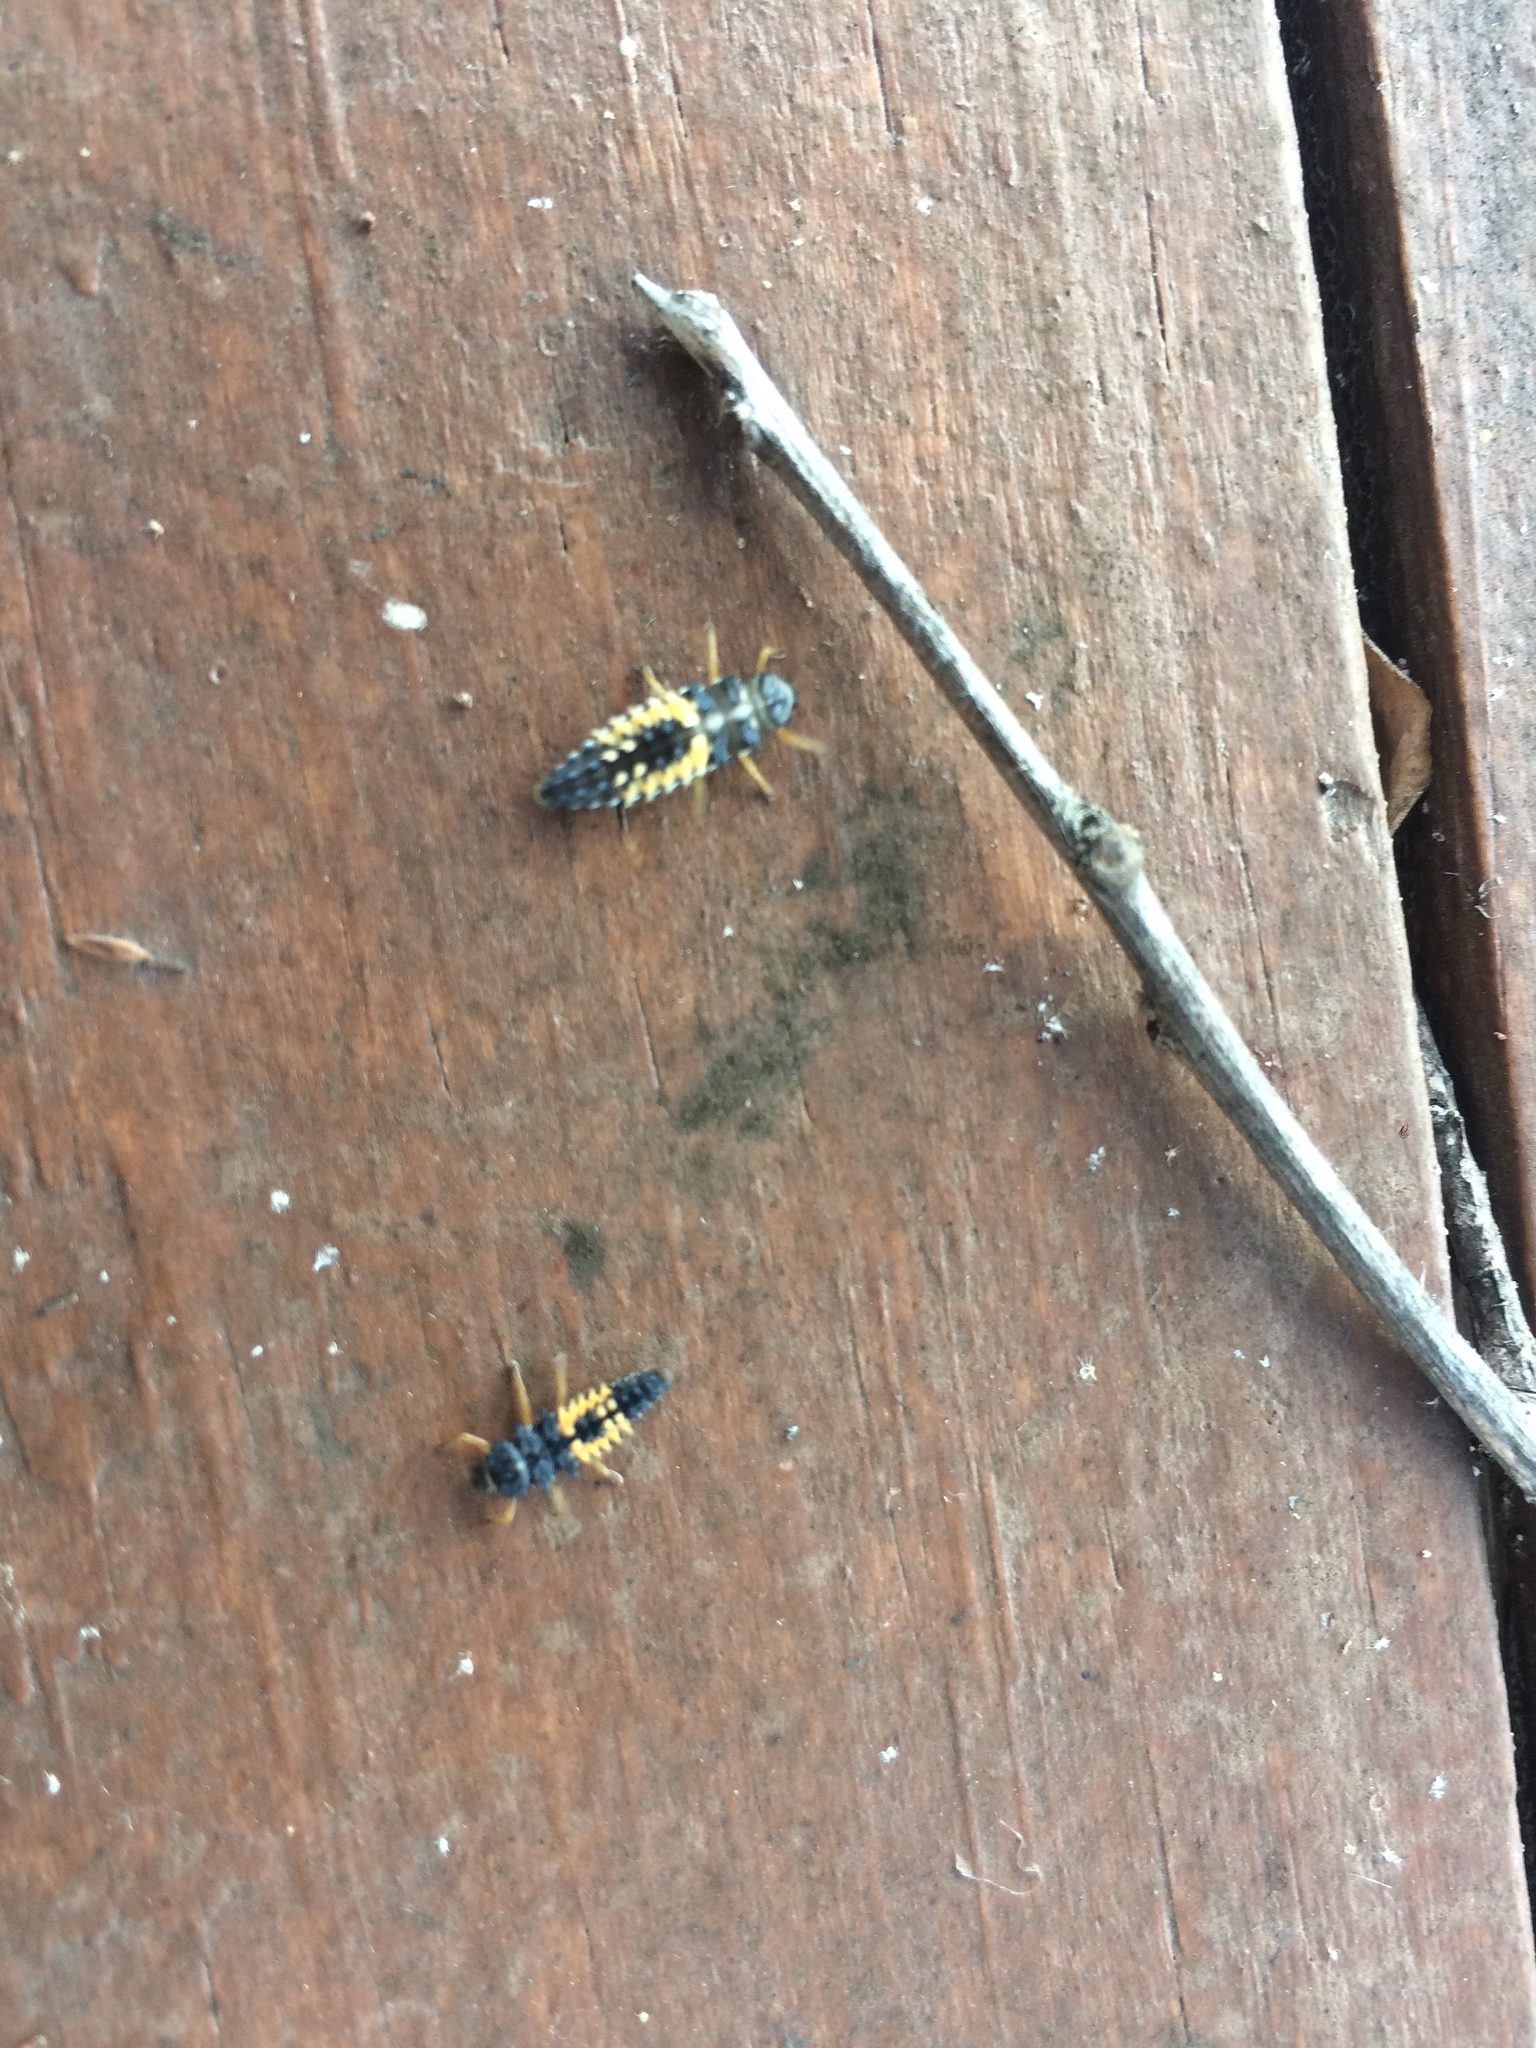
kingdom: Animalia
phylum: Arthropoda
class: Insecta
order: Coleoptera
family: Coccinellidae
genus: Harmonia
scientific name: Harmonia axyridis
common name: Harlequin ladybird
